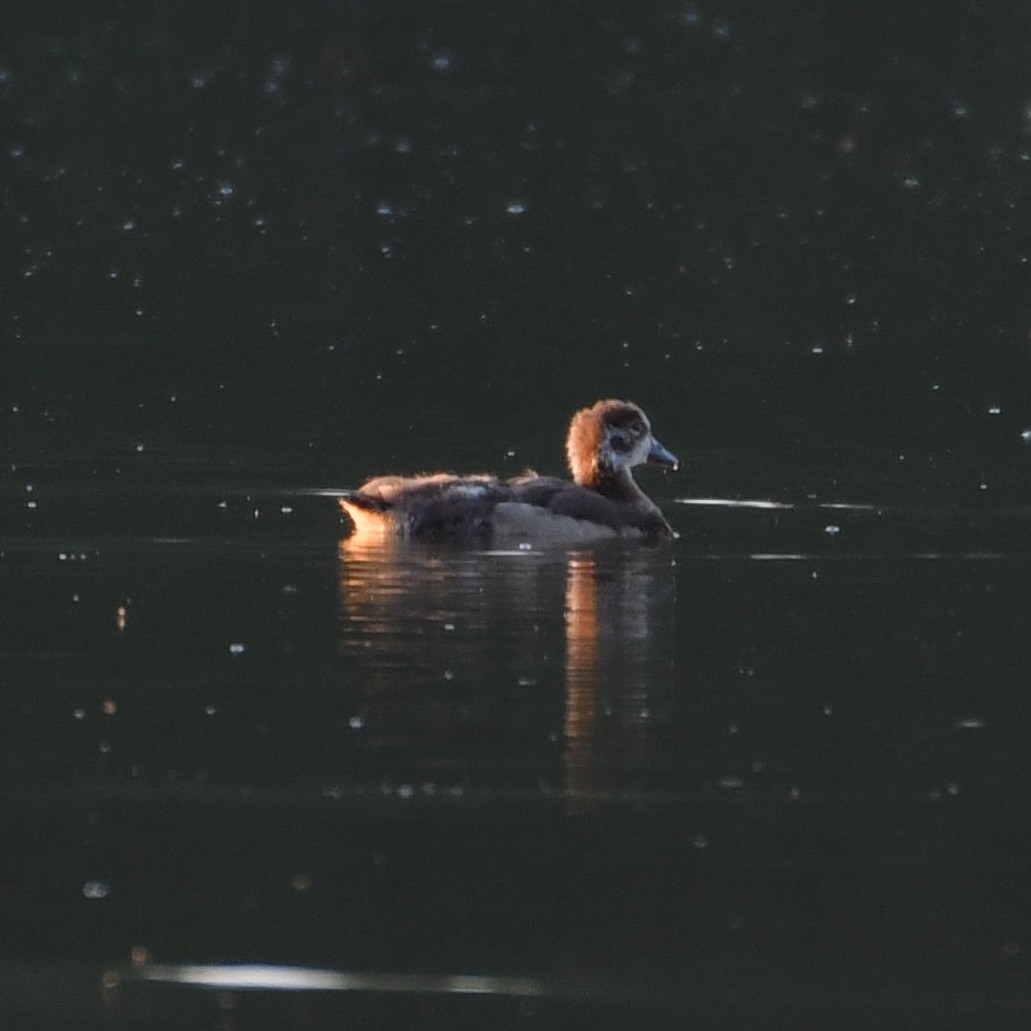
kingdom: Animalia
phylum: Chordata
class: Aves
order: Anseriformes
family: Anatidae
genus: Alopochen
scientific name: Alopochen aegyptiaca
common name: Egyptian goose
